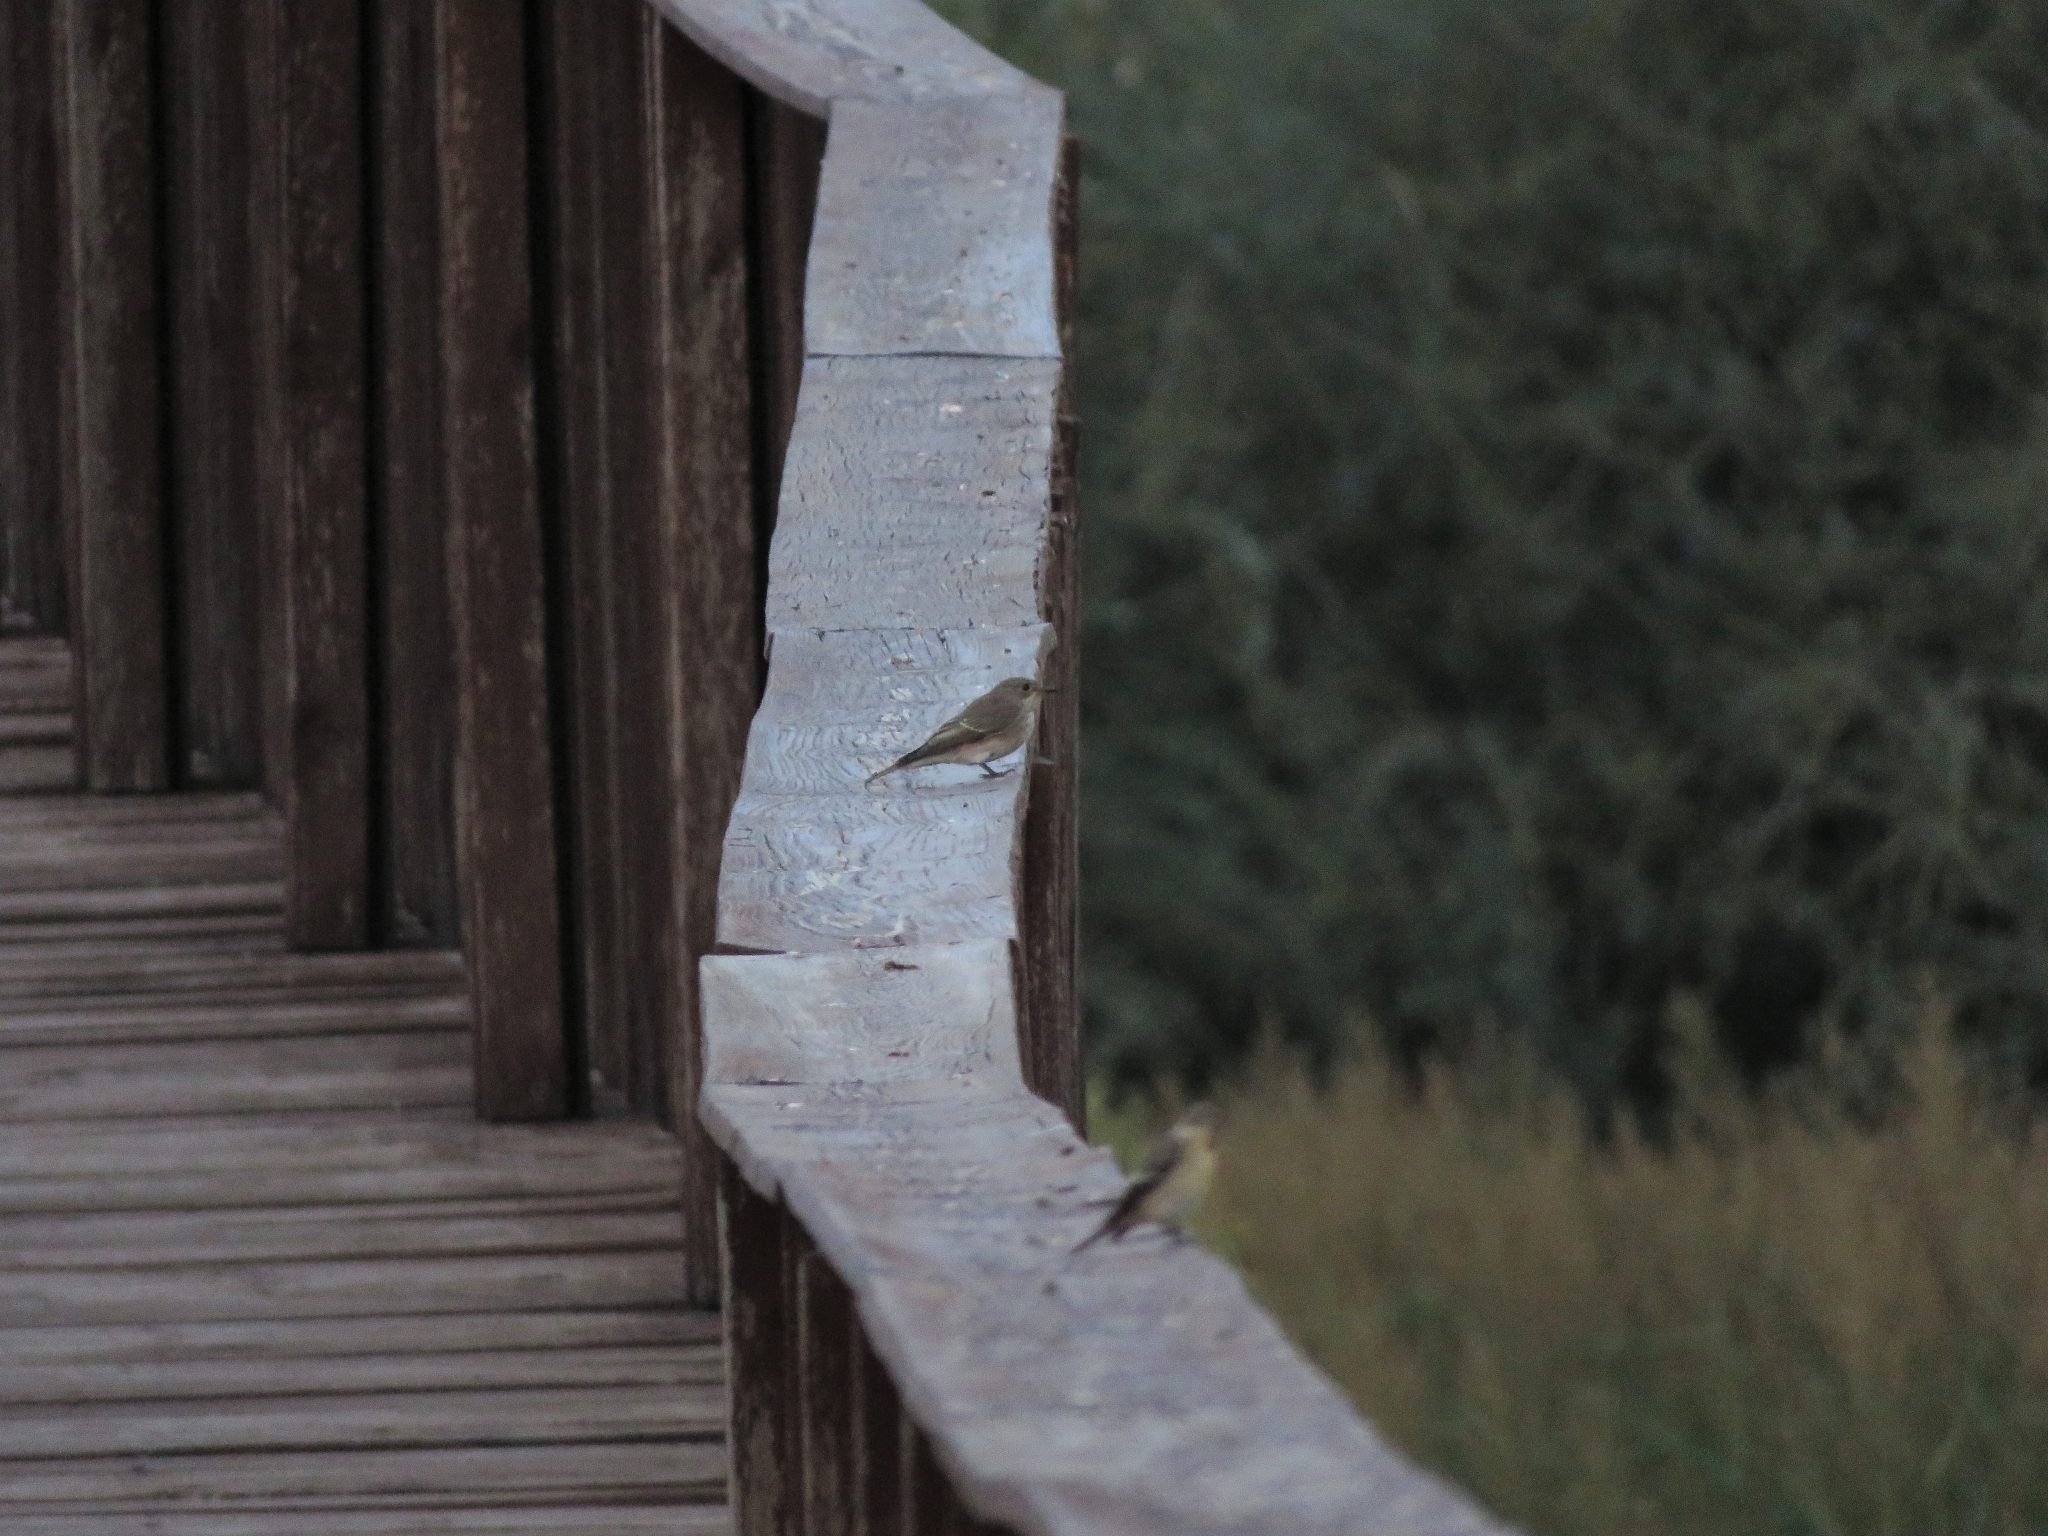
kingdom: Animalia
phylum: Chordata
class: Aves
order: Passeriformes
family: Muscicapidae
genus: Muscicapa
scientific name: Muscicapa striata
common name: Spotted flycatcher
